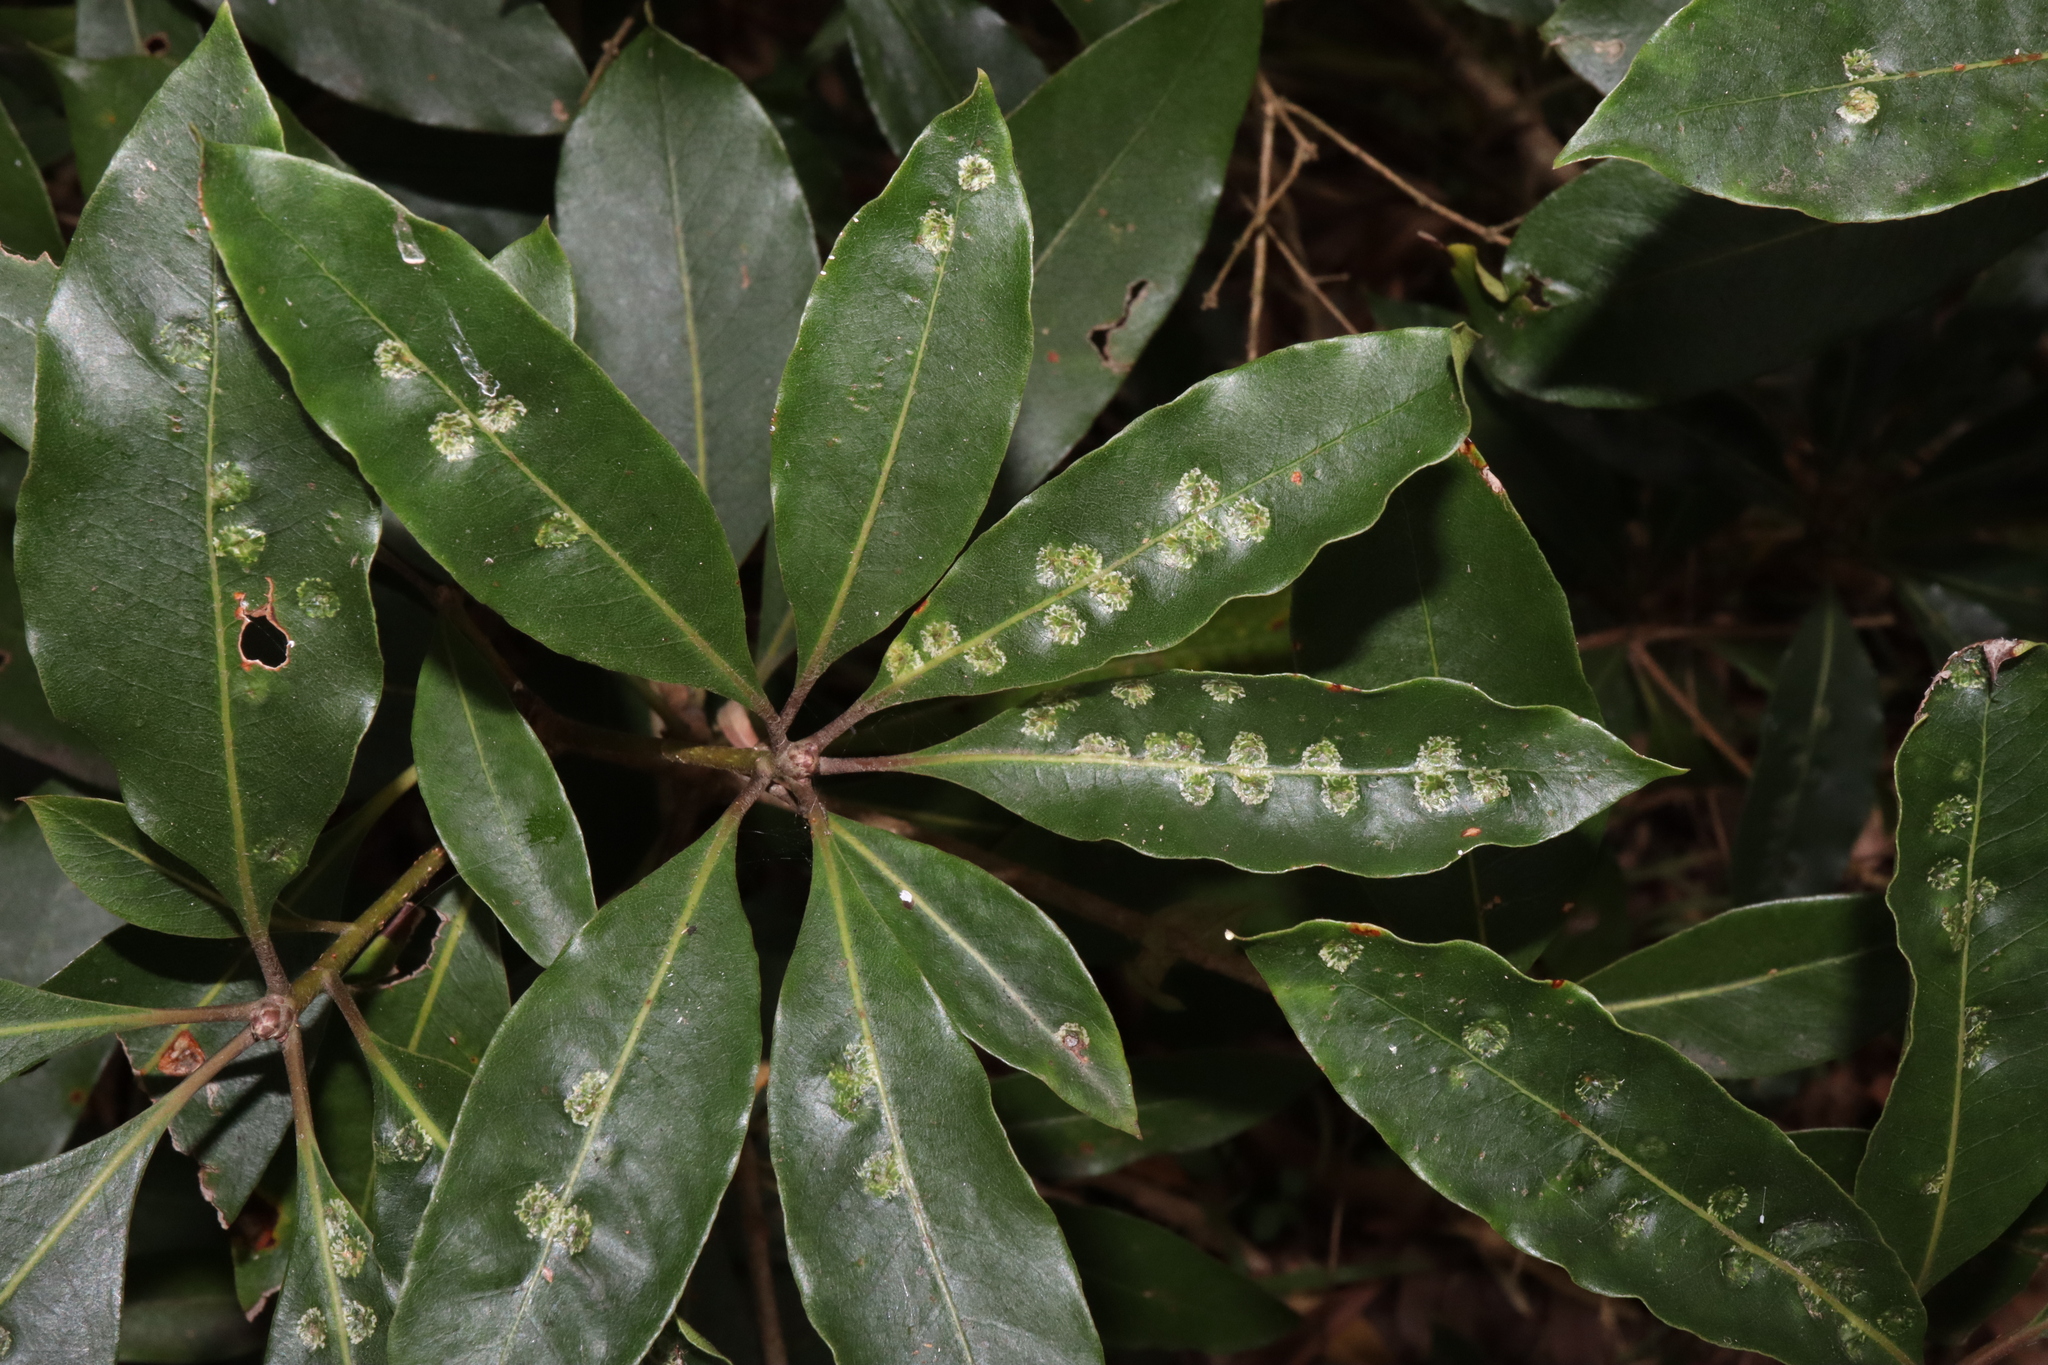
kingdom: Animalia
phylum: Arthropoda
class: Insecta
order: Diptera
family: Agromyzidae
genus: Phytoliriomyza
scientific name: Phytoliriomyza pittosporophylli
